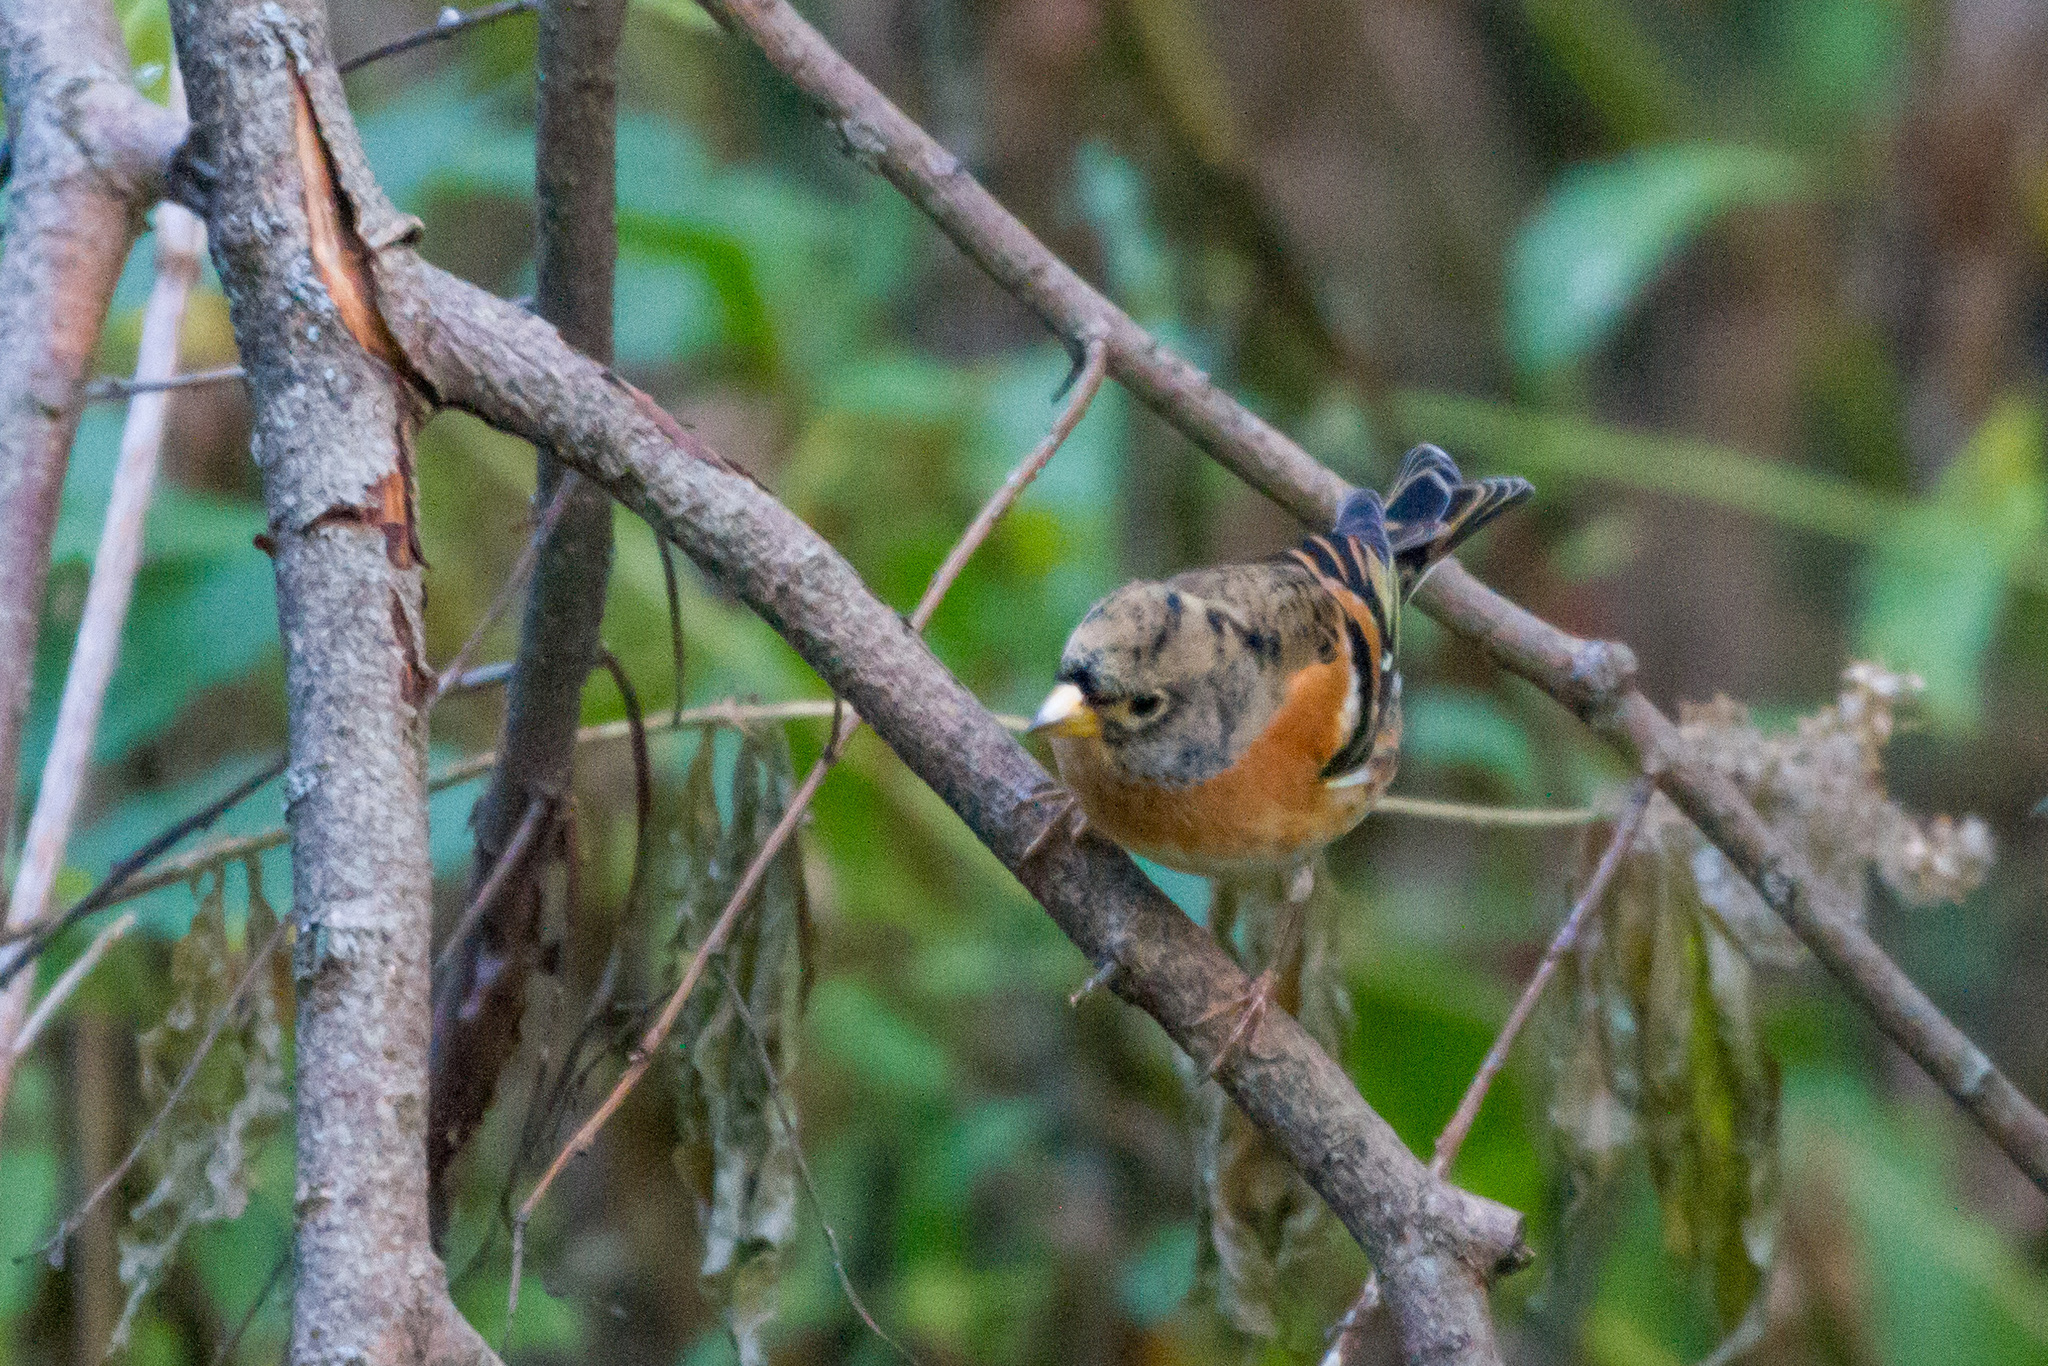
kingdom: Animalia
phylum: Chordata
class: Aves
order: Passeriformes
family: Fringillidae
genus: Fringilla
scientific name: Fringilla montifringilla
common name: Brambling
